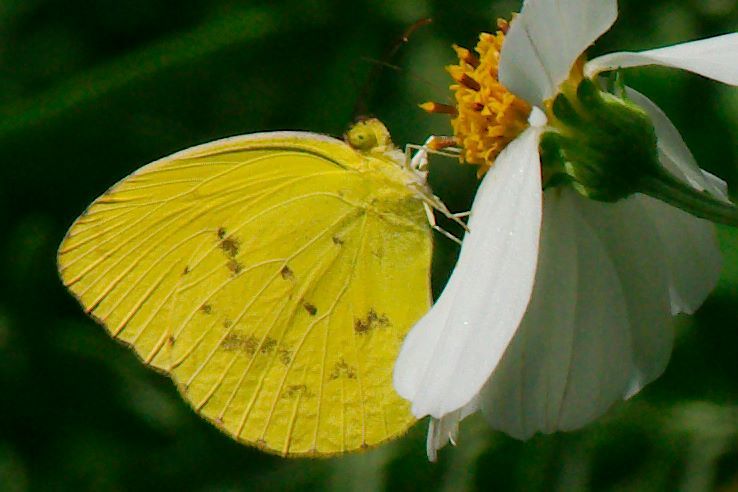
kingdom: Animalia
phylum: Arthropoda
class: Insecta
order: Lepidoptera
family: Pieridae
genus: Pyrisitia
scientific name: Pyrisitia dina
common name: Dina yellow
